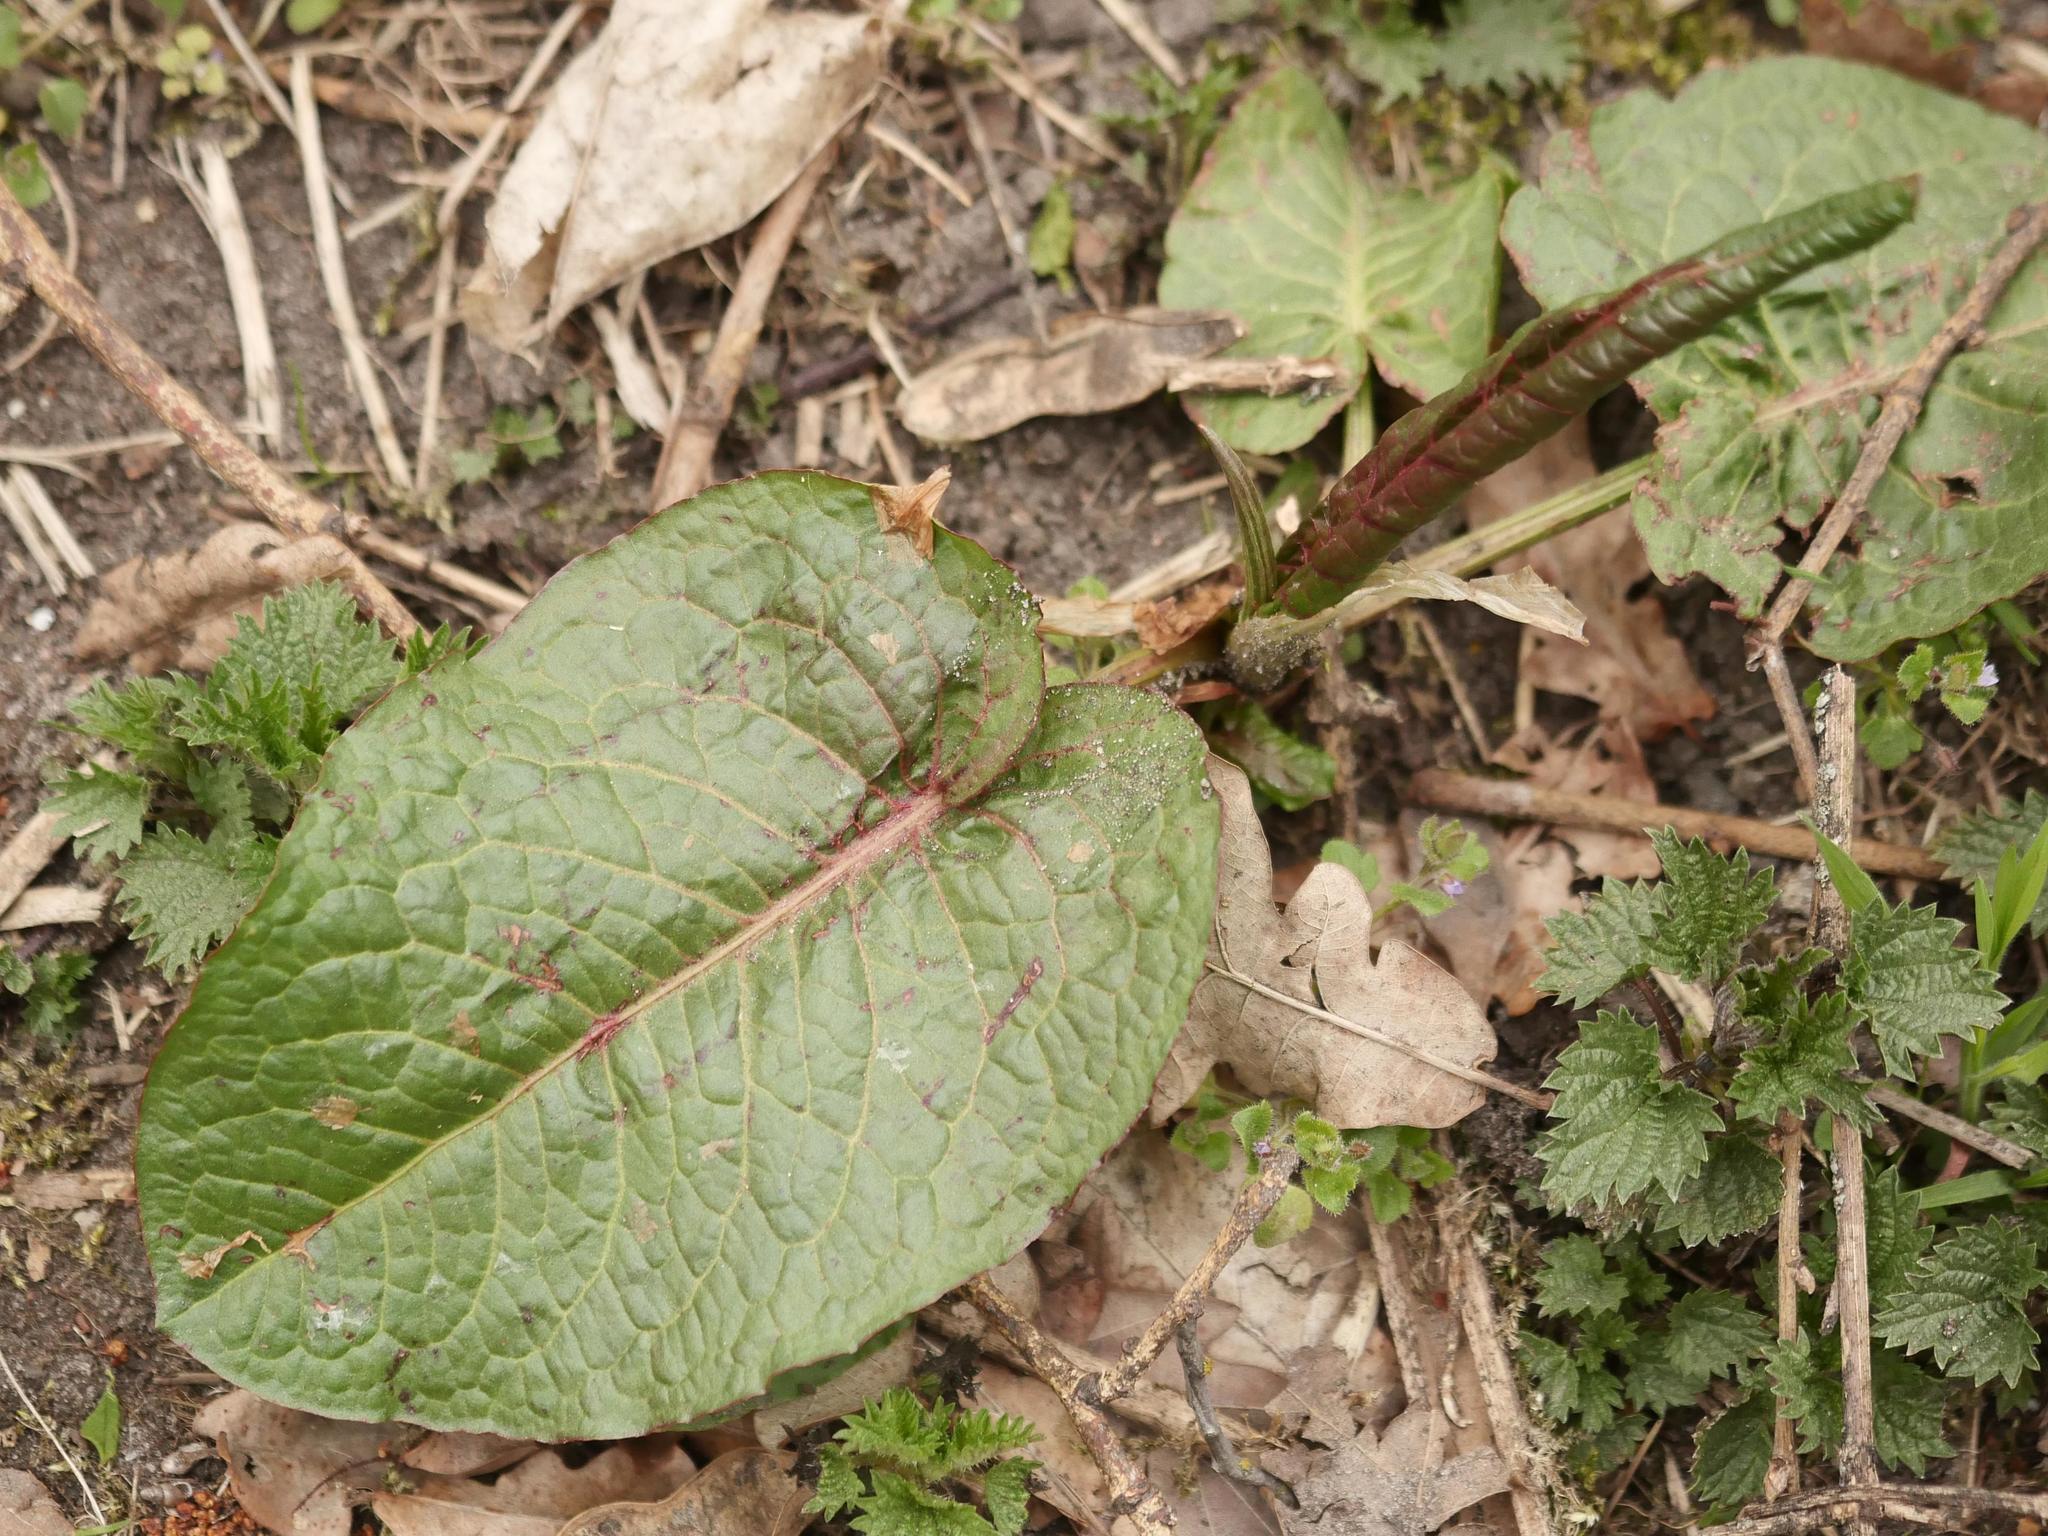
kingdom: Plantae
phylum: Tracheophyta
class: Magnoliopsida
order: Caryophyllales
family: Polygonaceae
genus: Rumex
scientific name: Rumex obtusifolius
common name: Bitter dock
